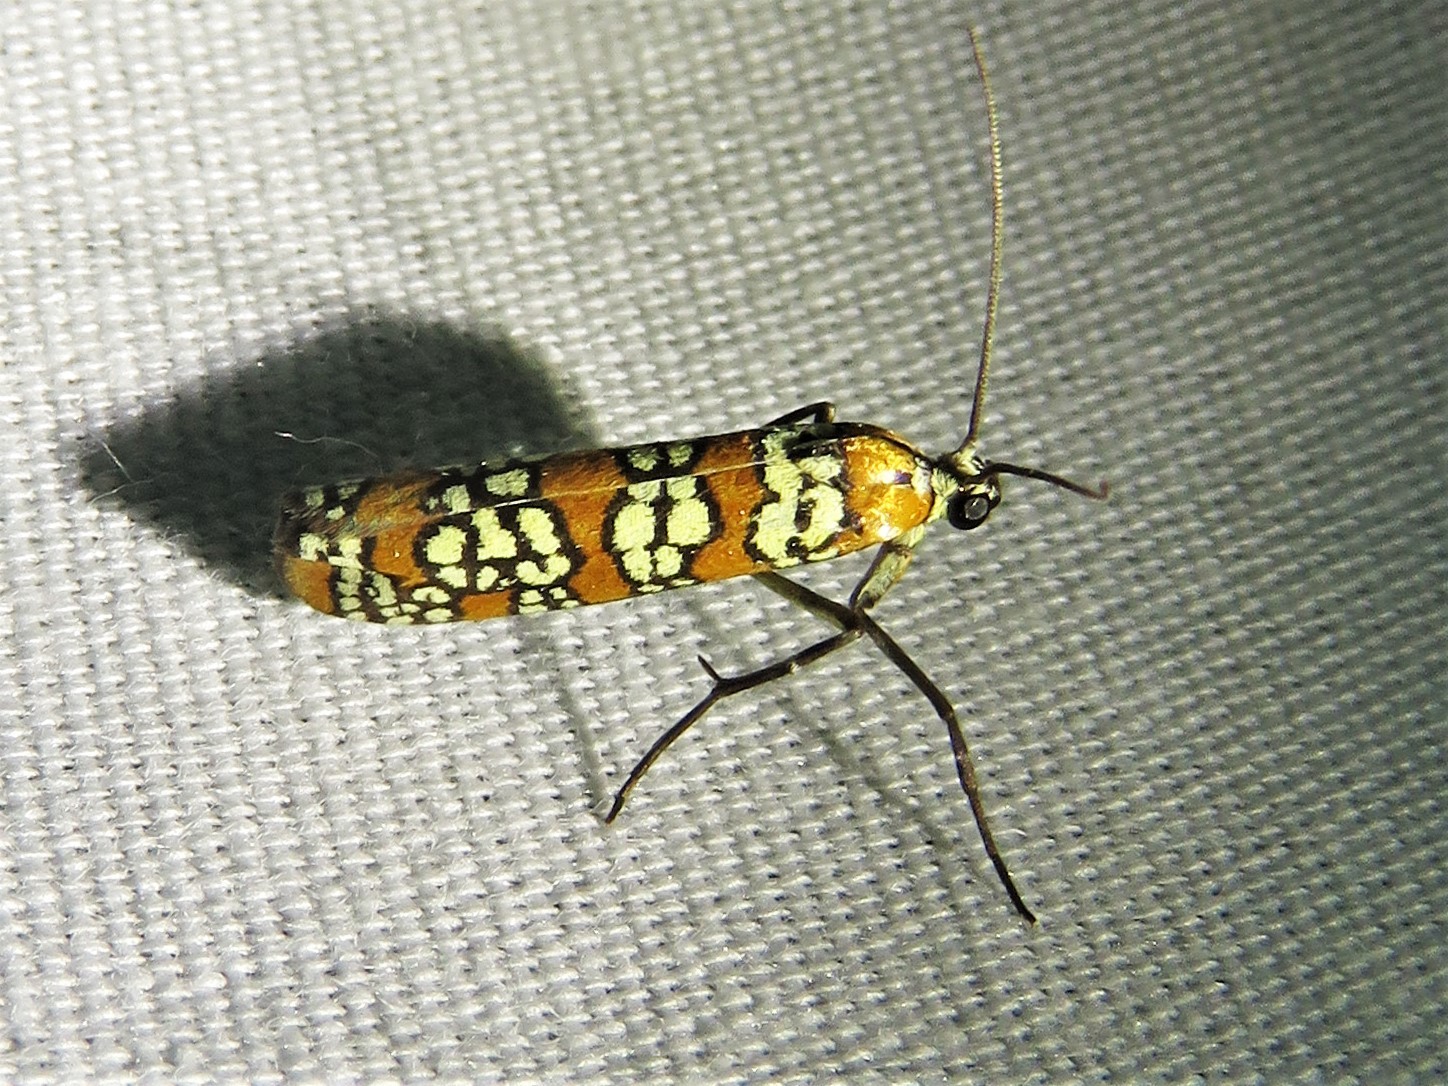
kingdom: Animalia
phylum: Arthropoda
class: Insecta
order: Lepidoptera
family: Attevidae
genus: Atteva
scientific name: Atteva punctella
